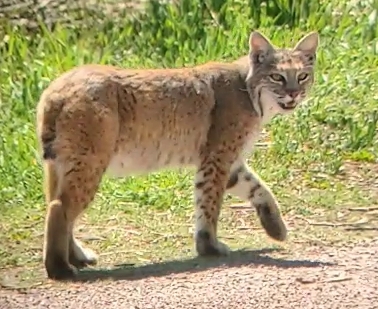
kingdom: Animalia
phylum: Chordata
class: Mammalia
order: Carnivora
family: Felidae
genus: Lynx
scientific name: Lynx rufus
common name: Bobcat
